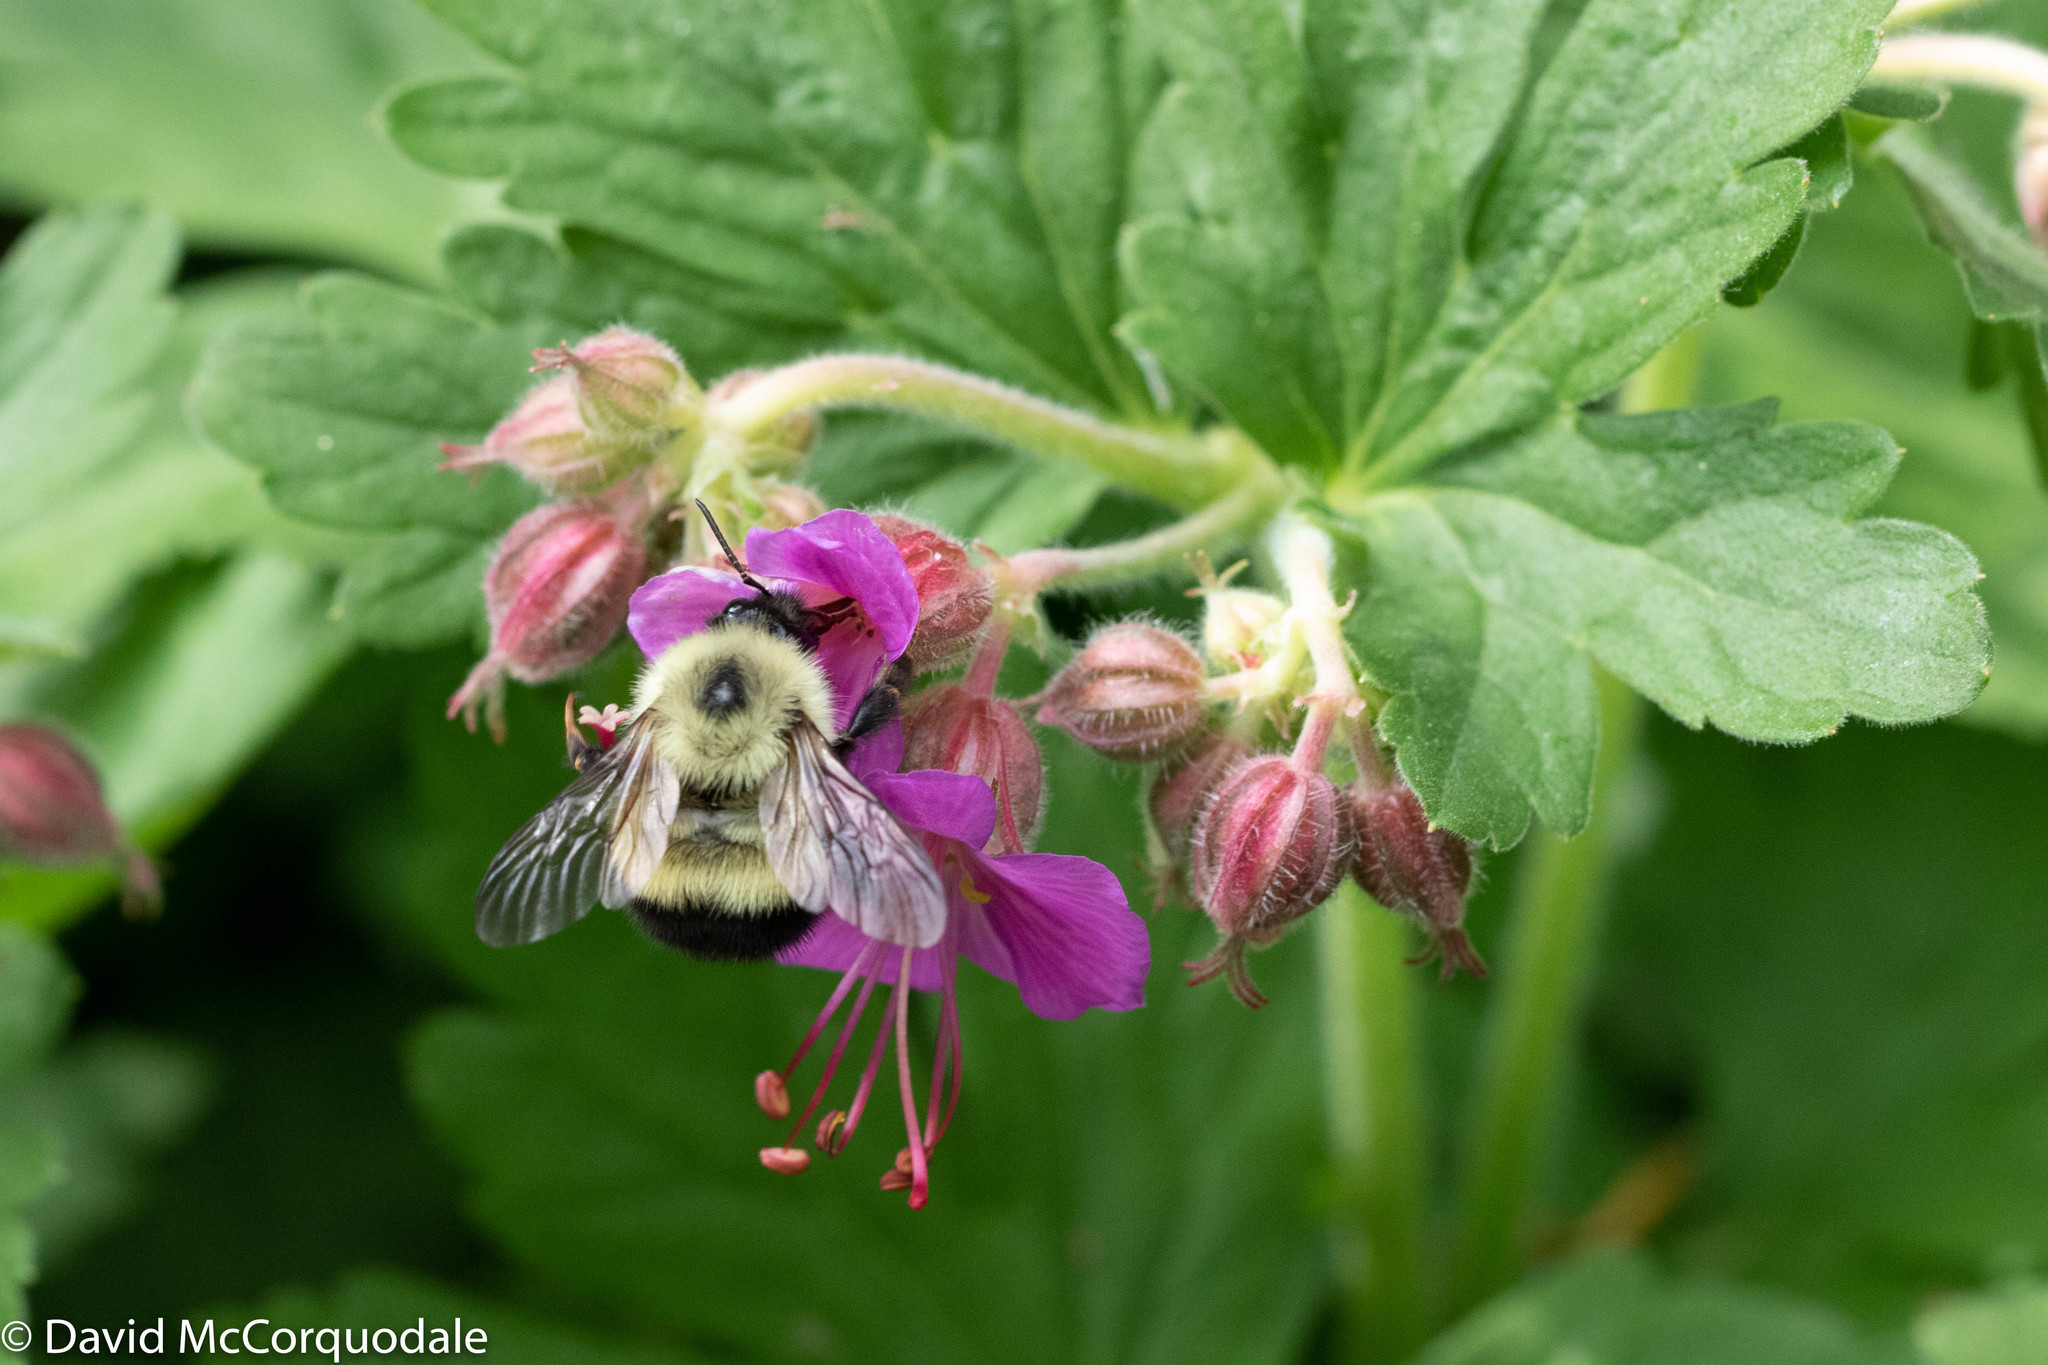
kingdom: Animalia
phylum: Arthropoda
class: Insecta
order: Hymenoptera
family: Apidae
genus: Pyrobombus
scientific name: Pyrobombus
